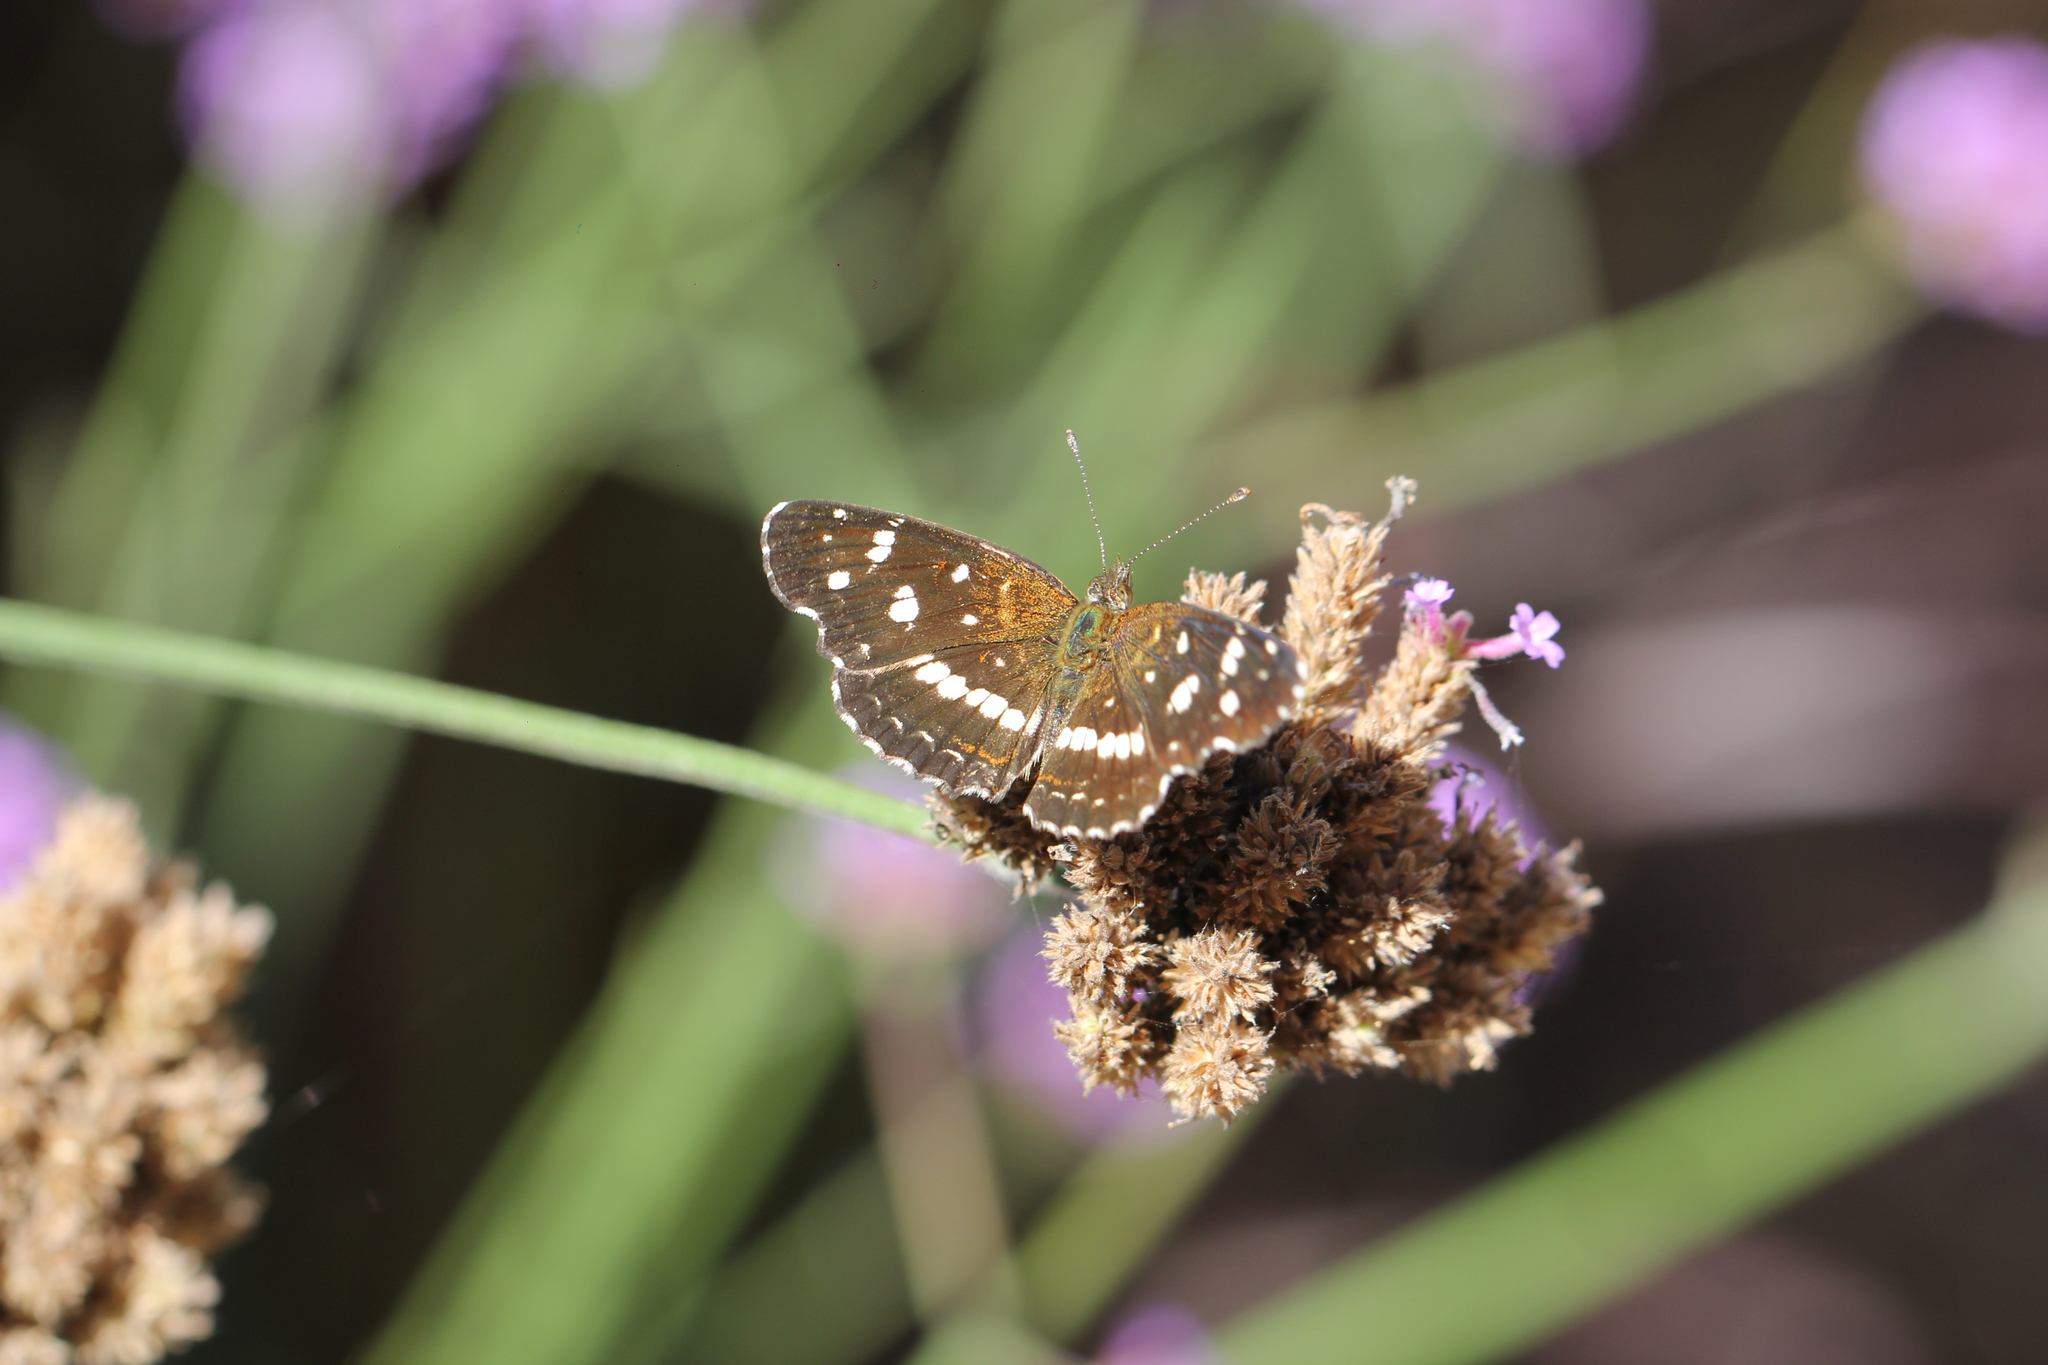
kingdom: Animalia
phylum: Arthropoda
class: Insecta
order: Lepidoptera
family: Nymphalidae
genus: Ortilia
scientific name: Ortilia ithra
